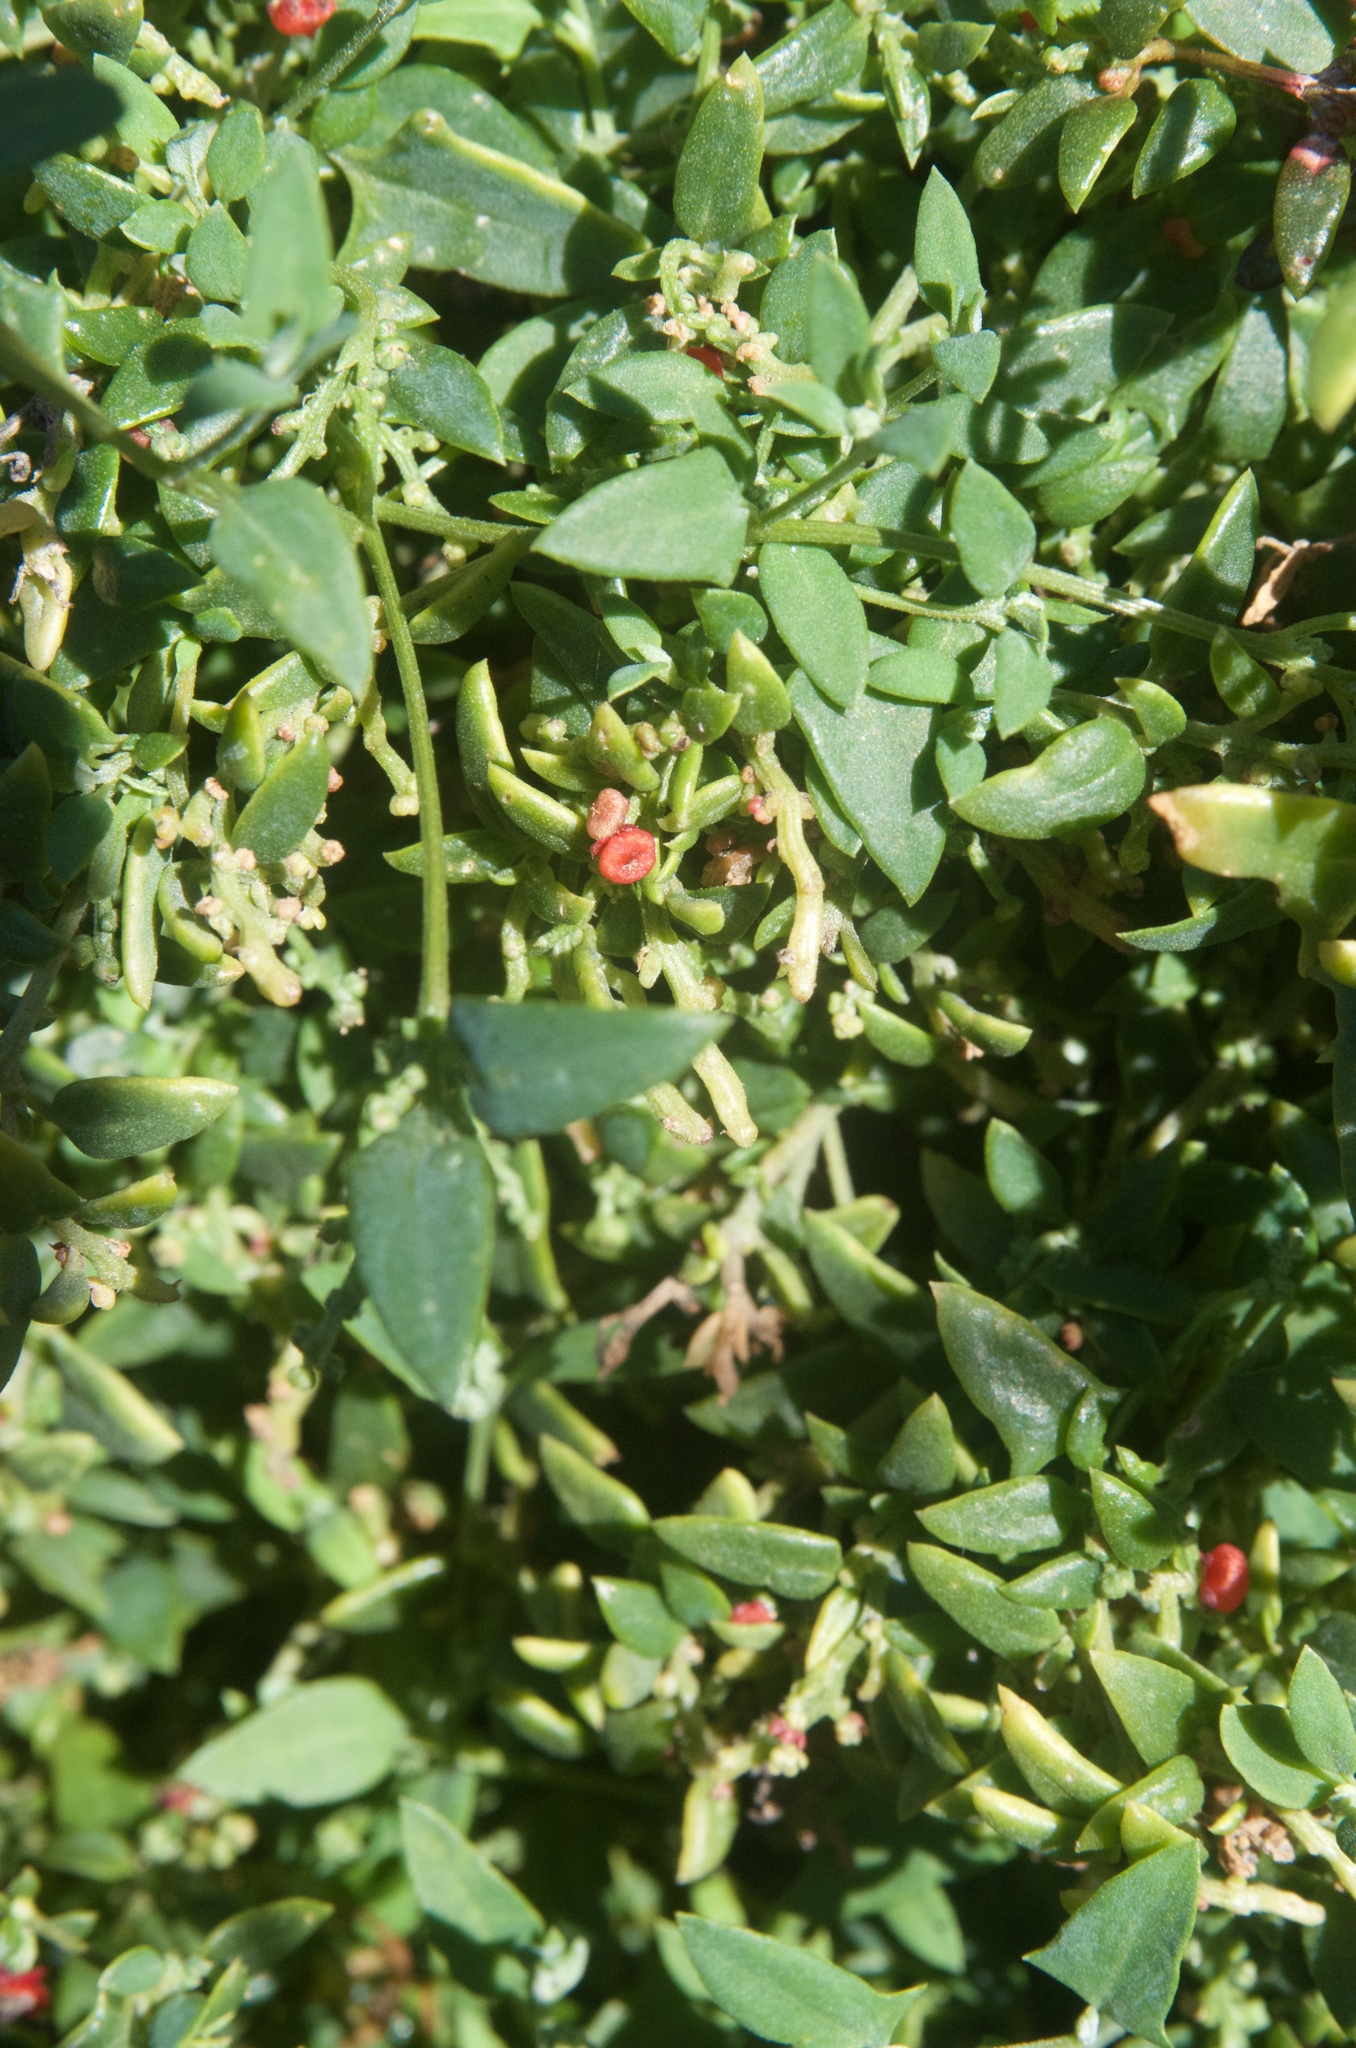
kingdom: Plantae
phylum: Tracheophyta
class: Magnoliopsida
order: Caryophyllales
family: Amaranthaceae
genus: Chenopodium
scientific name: Chenopodium nutans
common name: Climbing-saltbush
